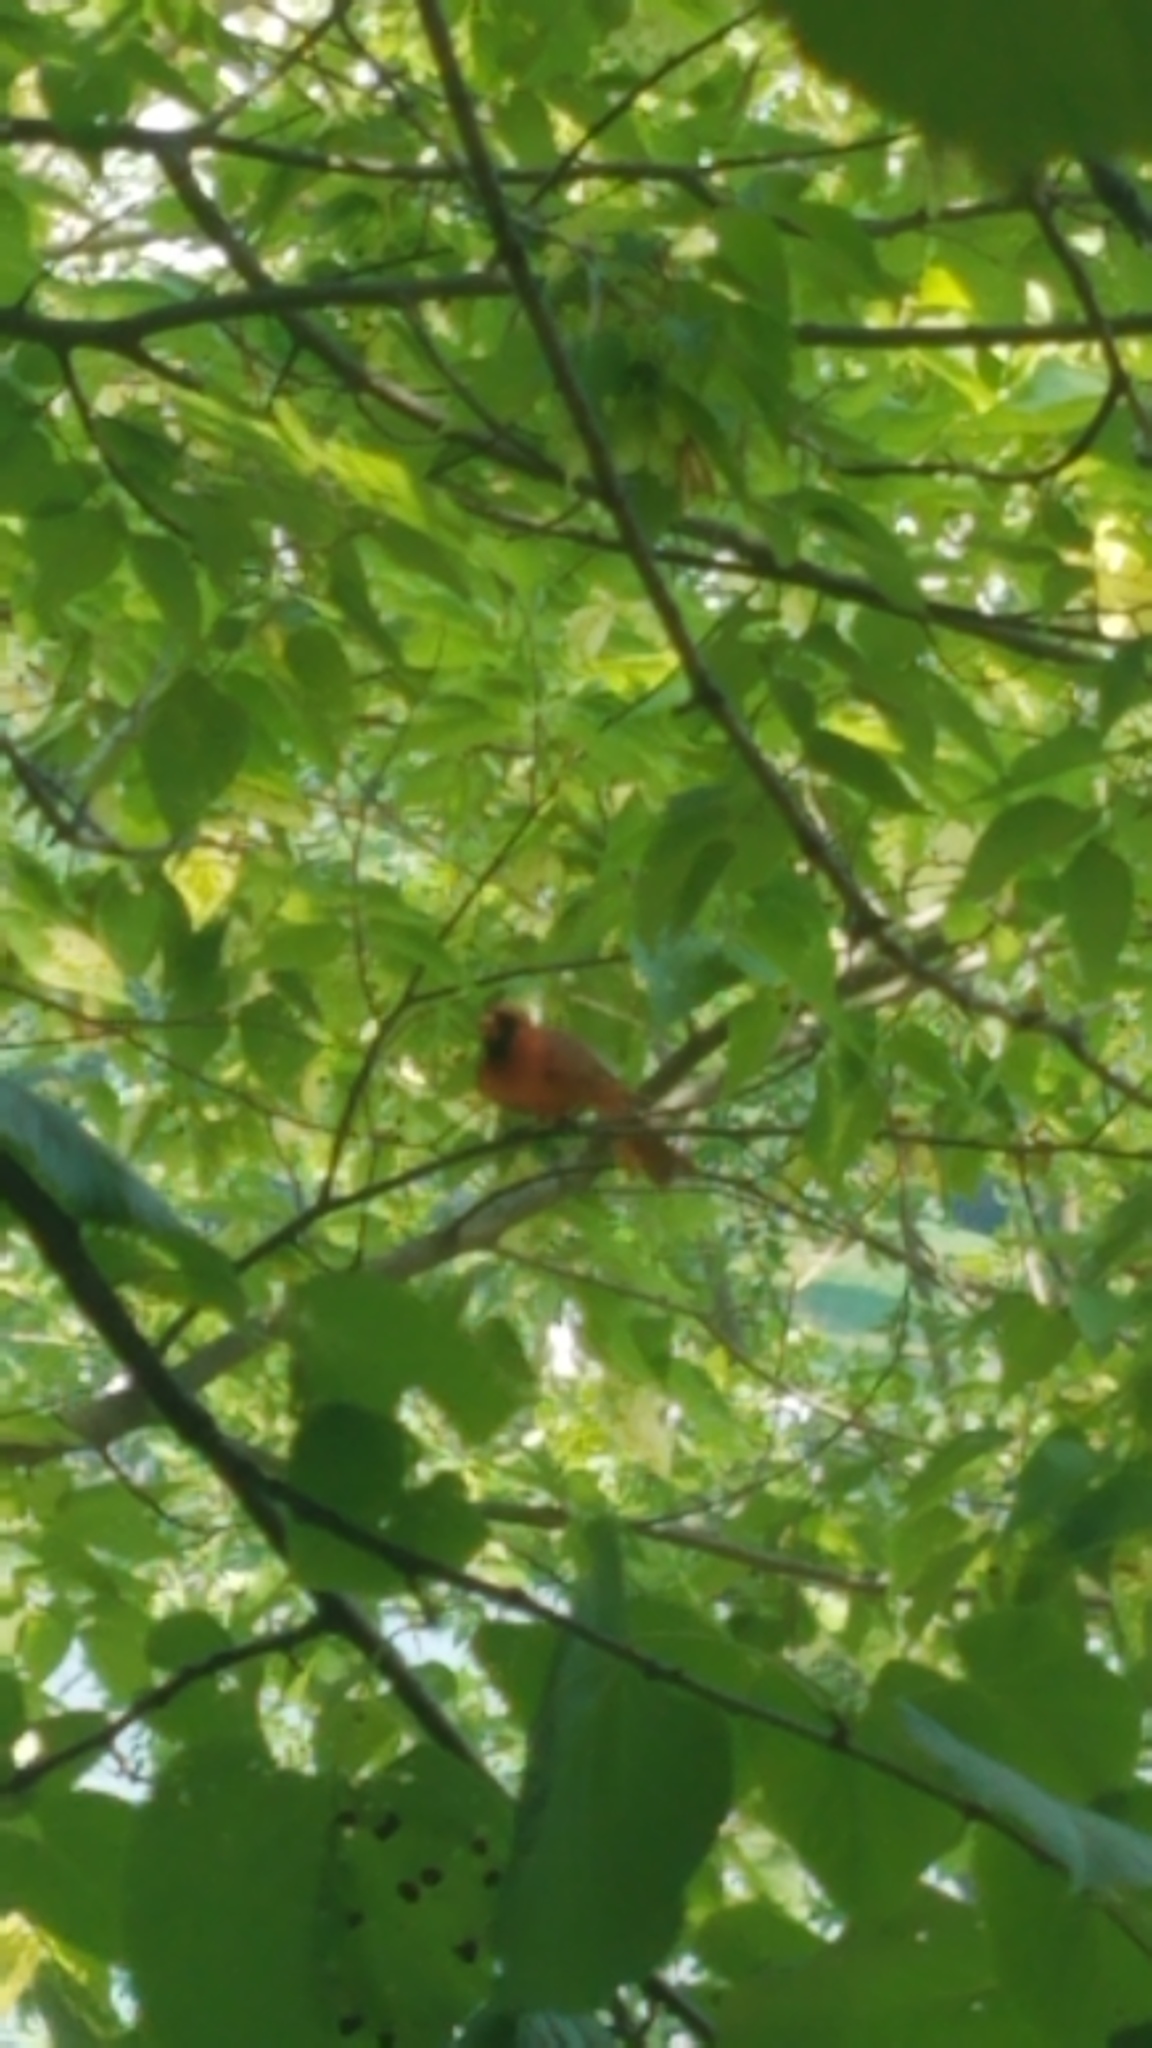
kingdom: Animalia
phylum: Chordata
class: Aves
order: Passeriformes
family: Cardinalidae
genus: Cardinalis
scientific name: Cardinalis cardinalis
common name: Northern cardinal
